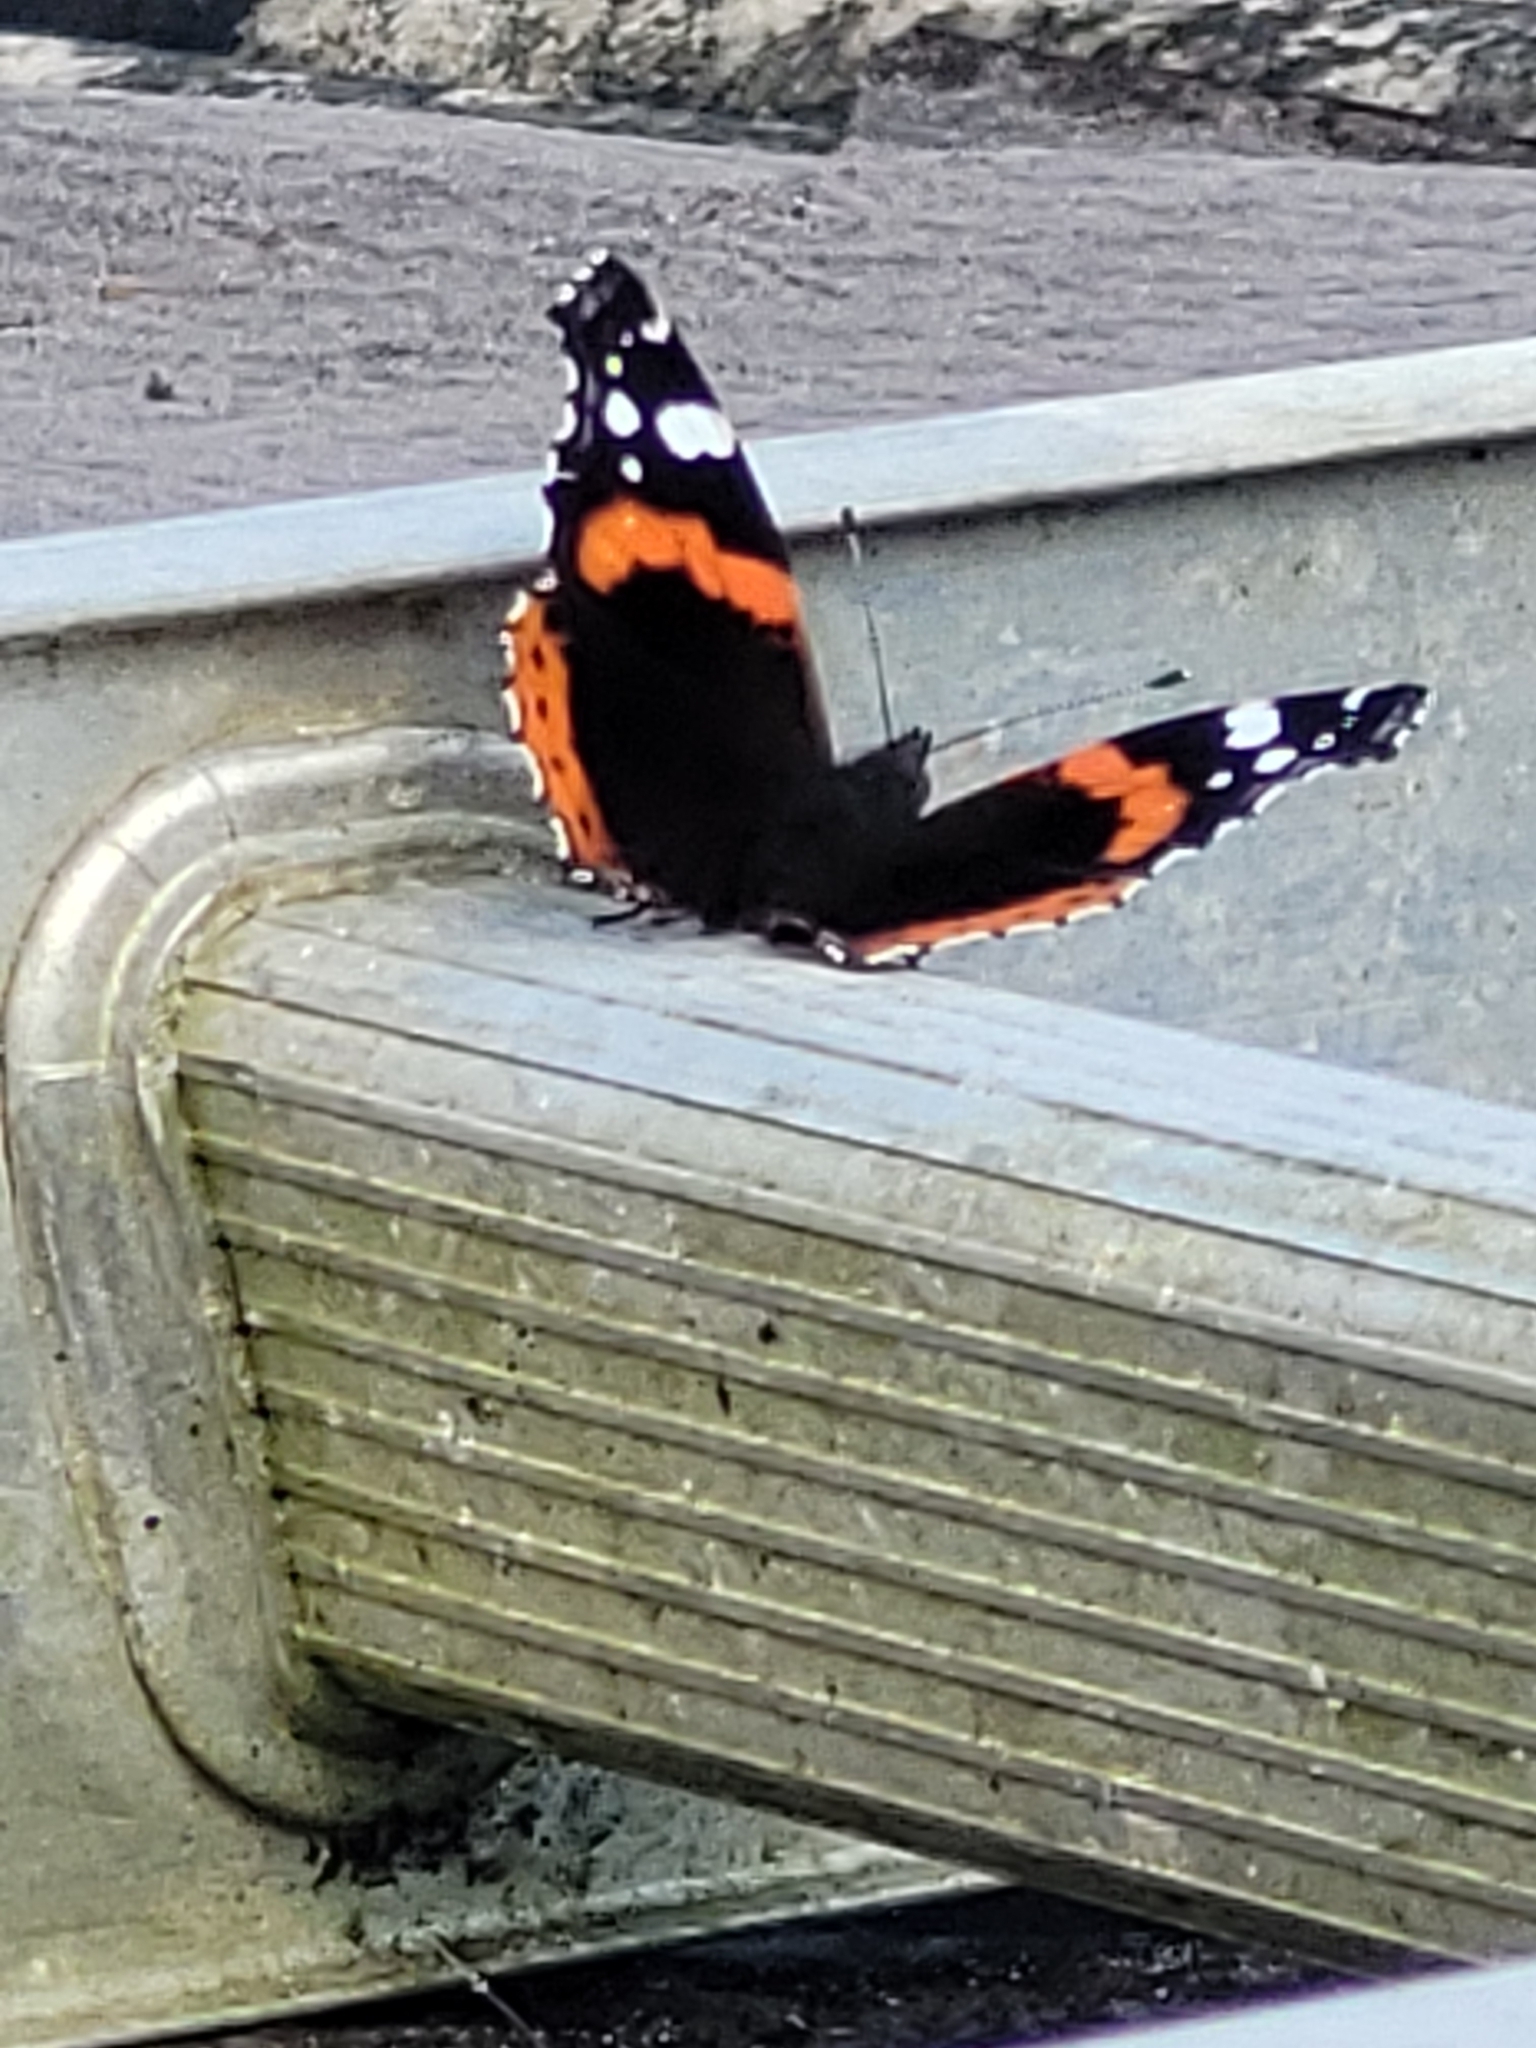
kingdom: Animalia
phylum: Arthropoda
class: Insecta
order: Lepidoptera
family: Nymphalidae
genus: Vanessa
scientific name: Vanessa atalanta
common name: Red admiral
